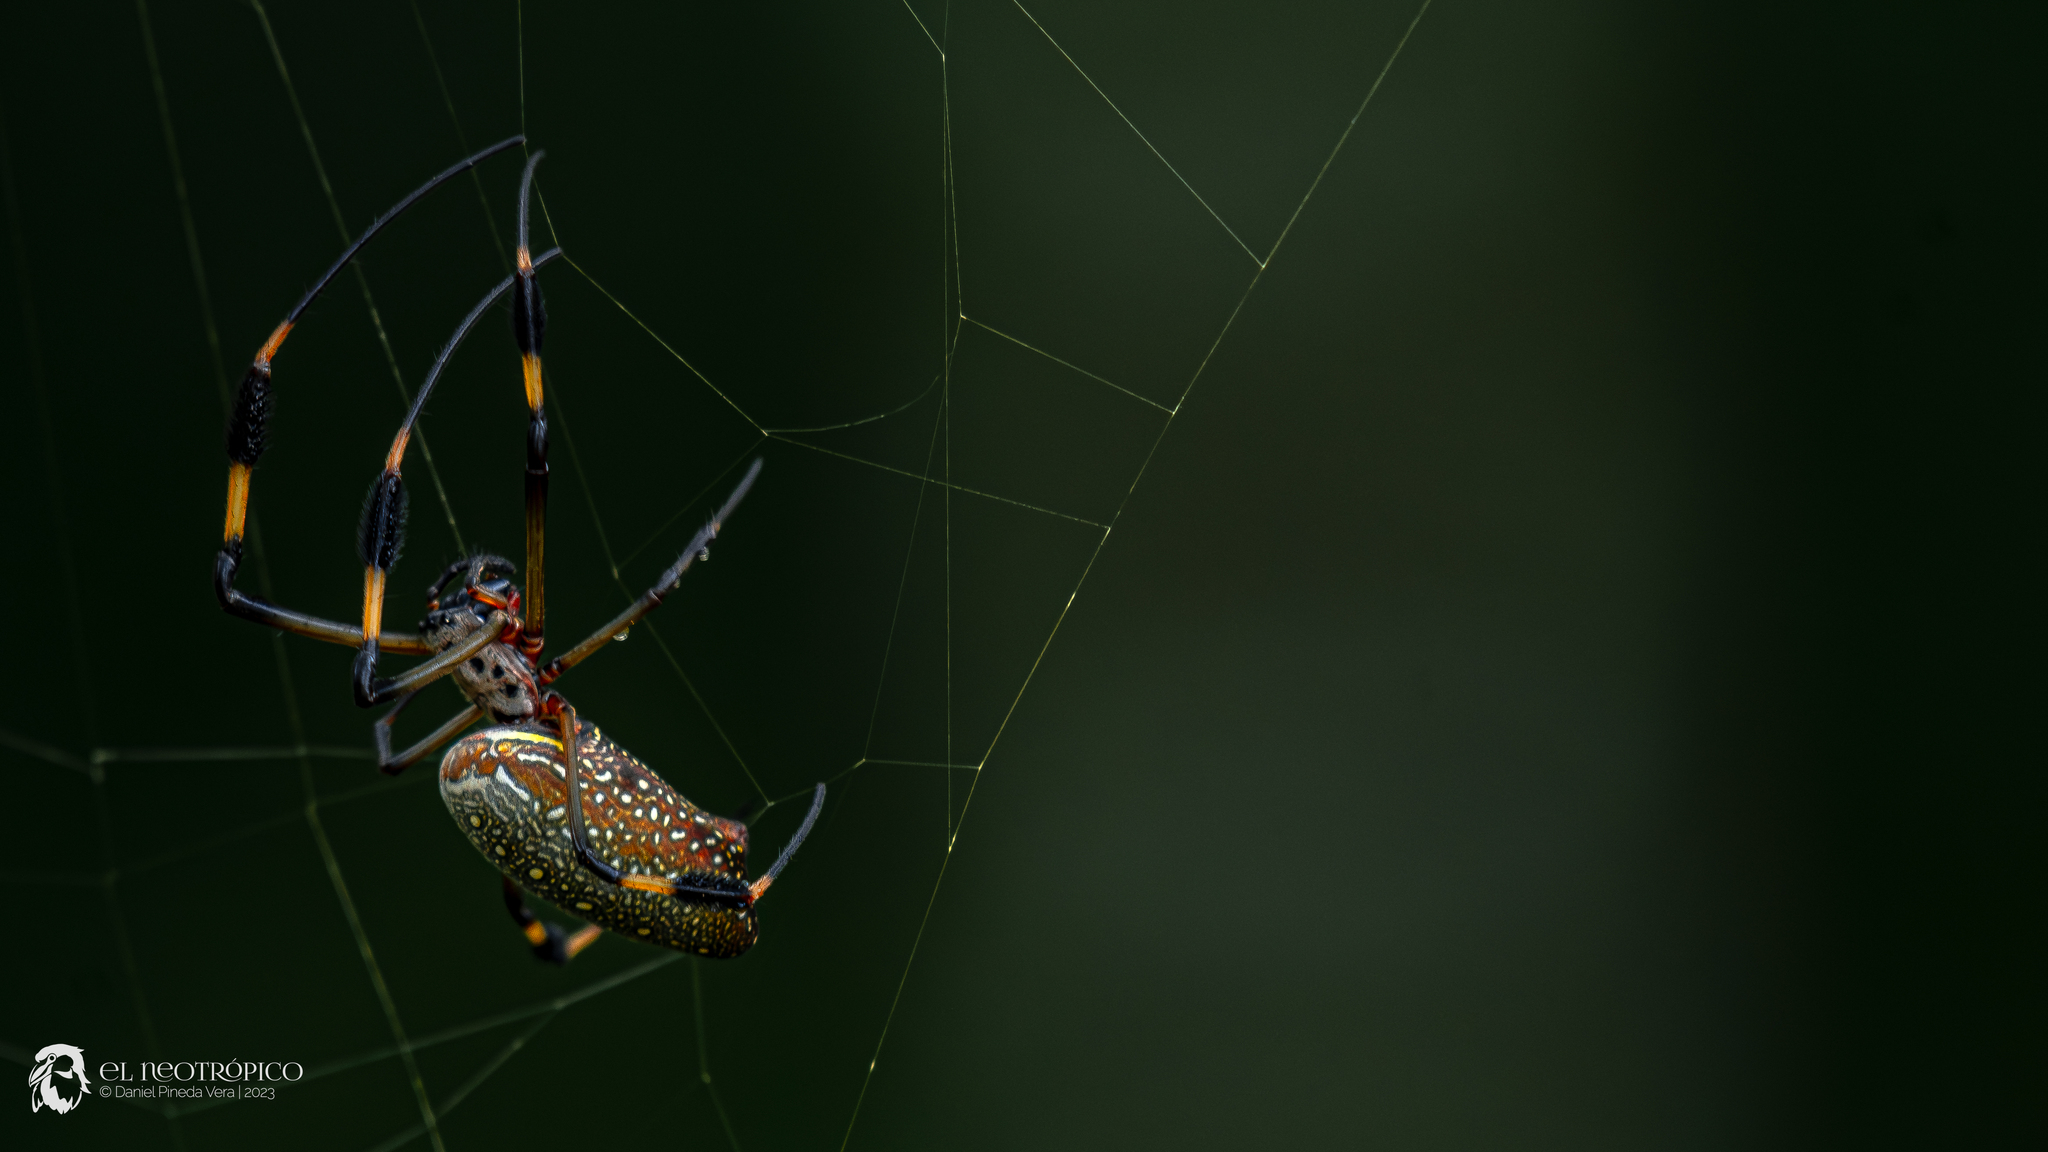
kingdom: Animalia
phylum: Arthropoda
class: Arachnida
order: Araneae
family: Araneidae
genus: Trichonephila
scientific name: Trichonephila clavipes
